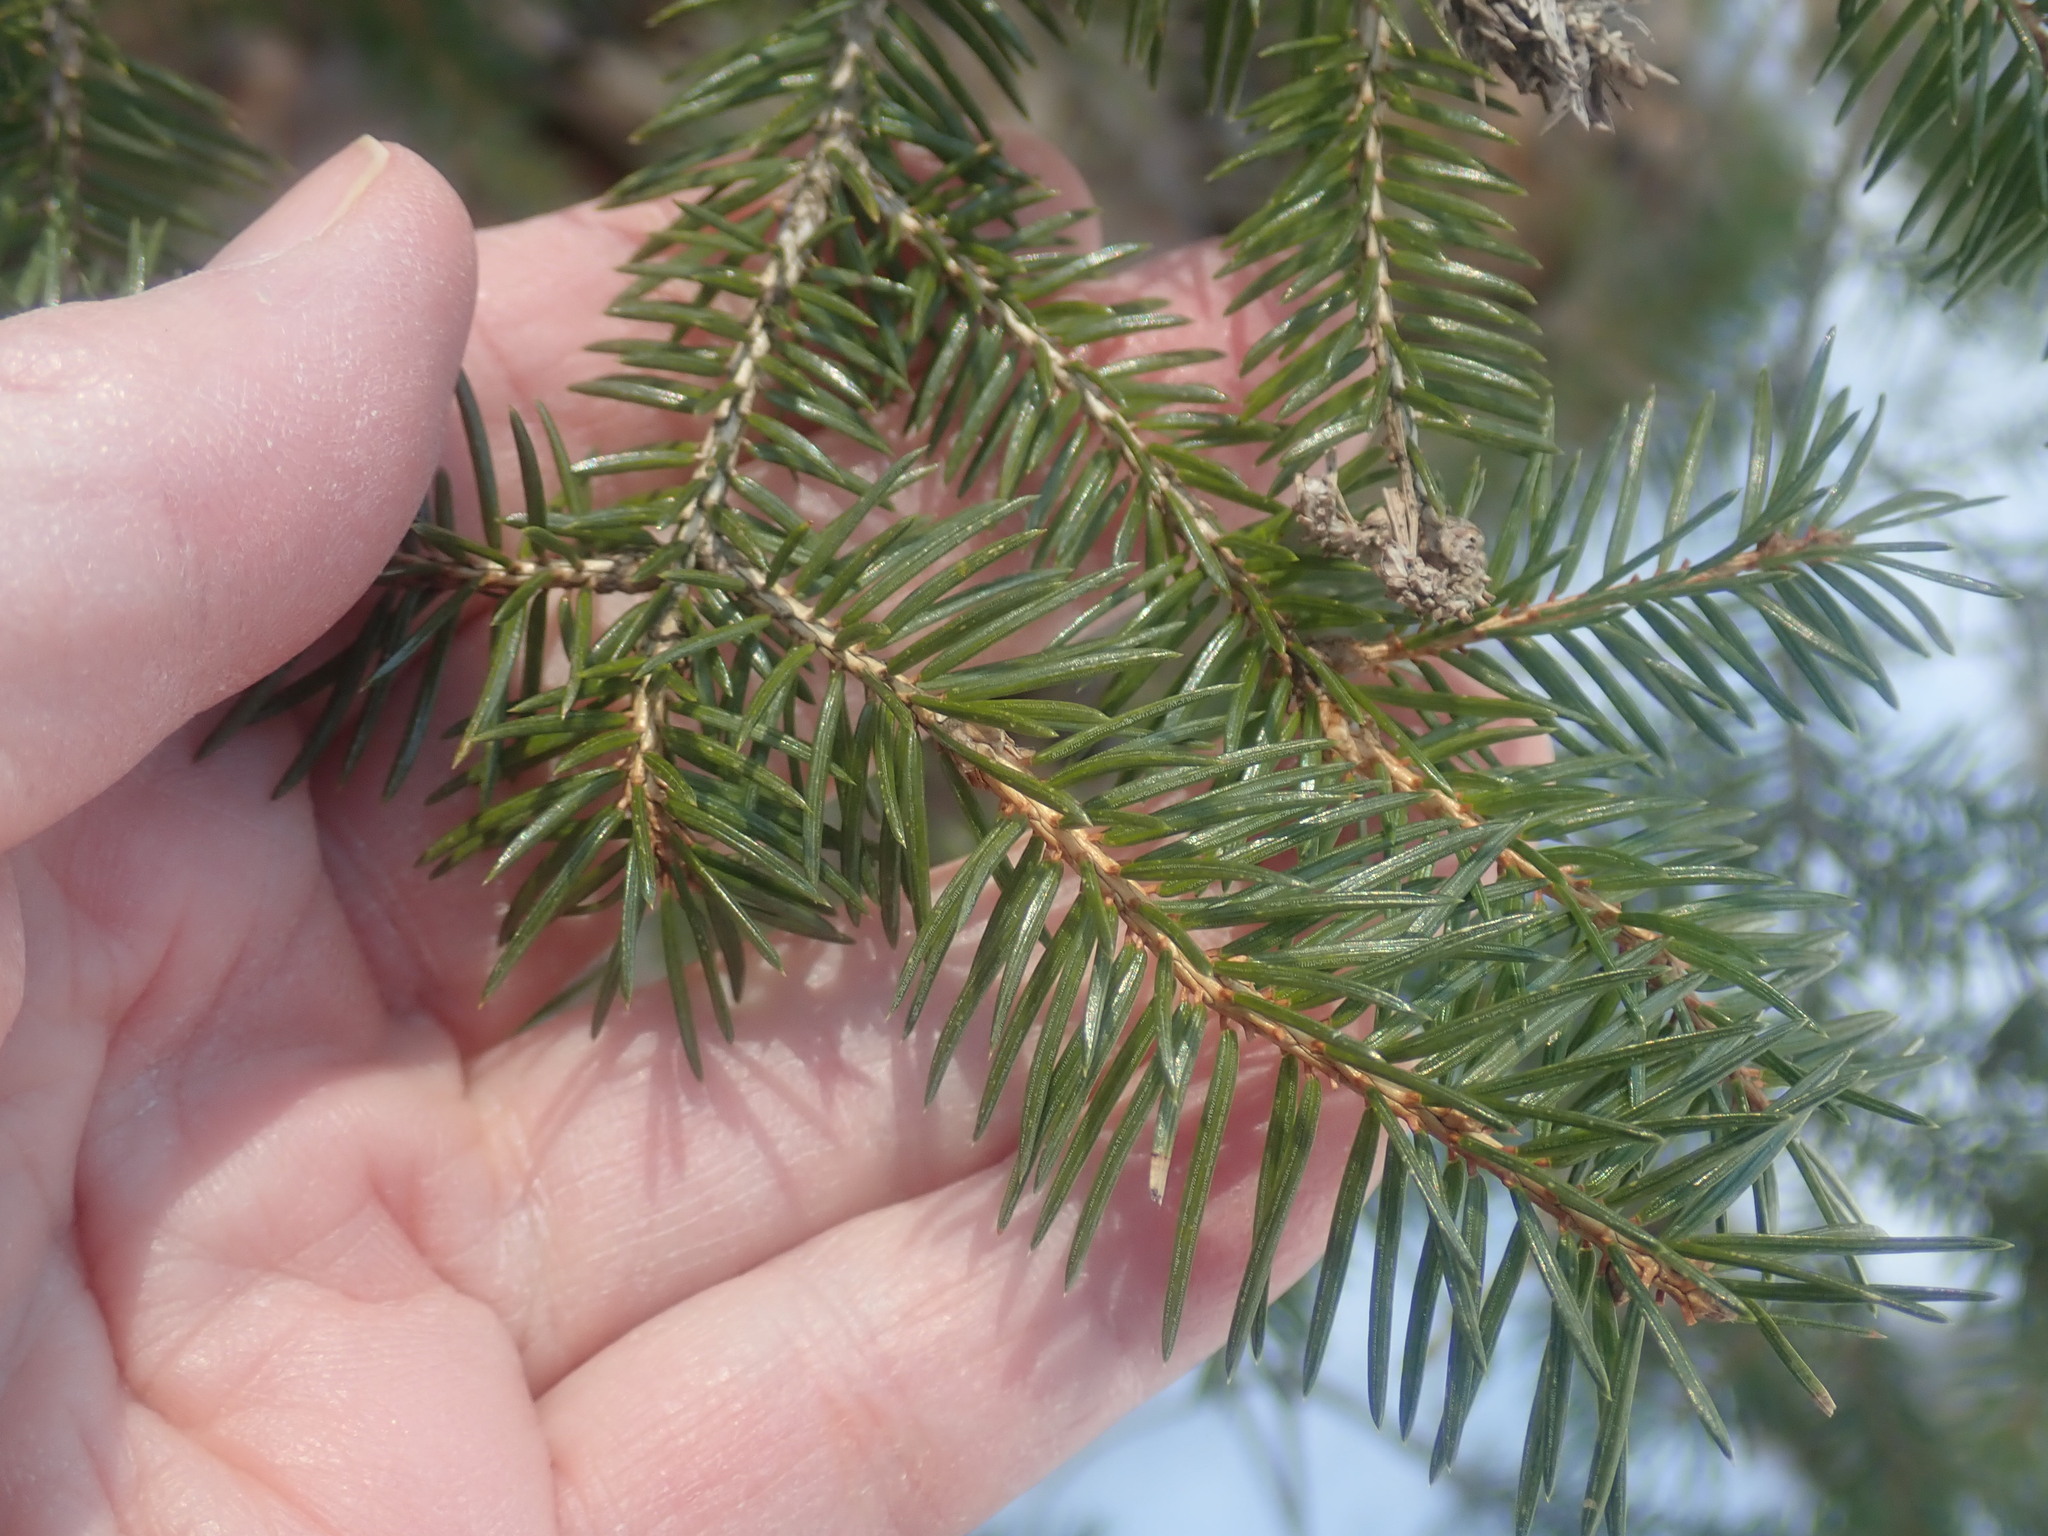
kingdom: Plantae
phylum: Tracheophyta
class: Pinopsida
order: Pinales
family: Pinaceae
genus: Picea
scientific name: Picea abies
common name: Norway spruce
